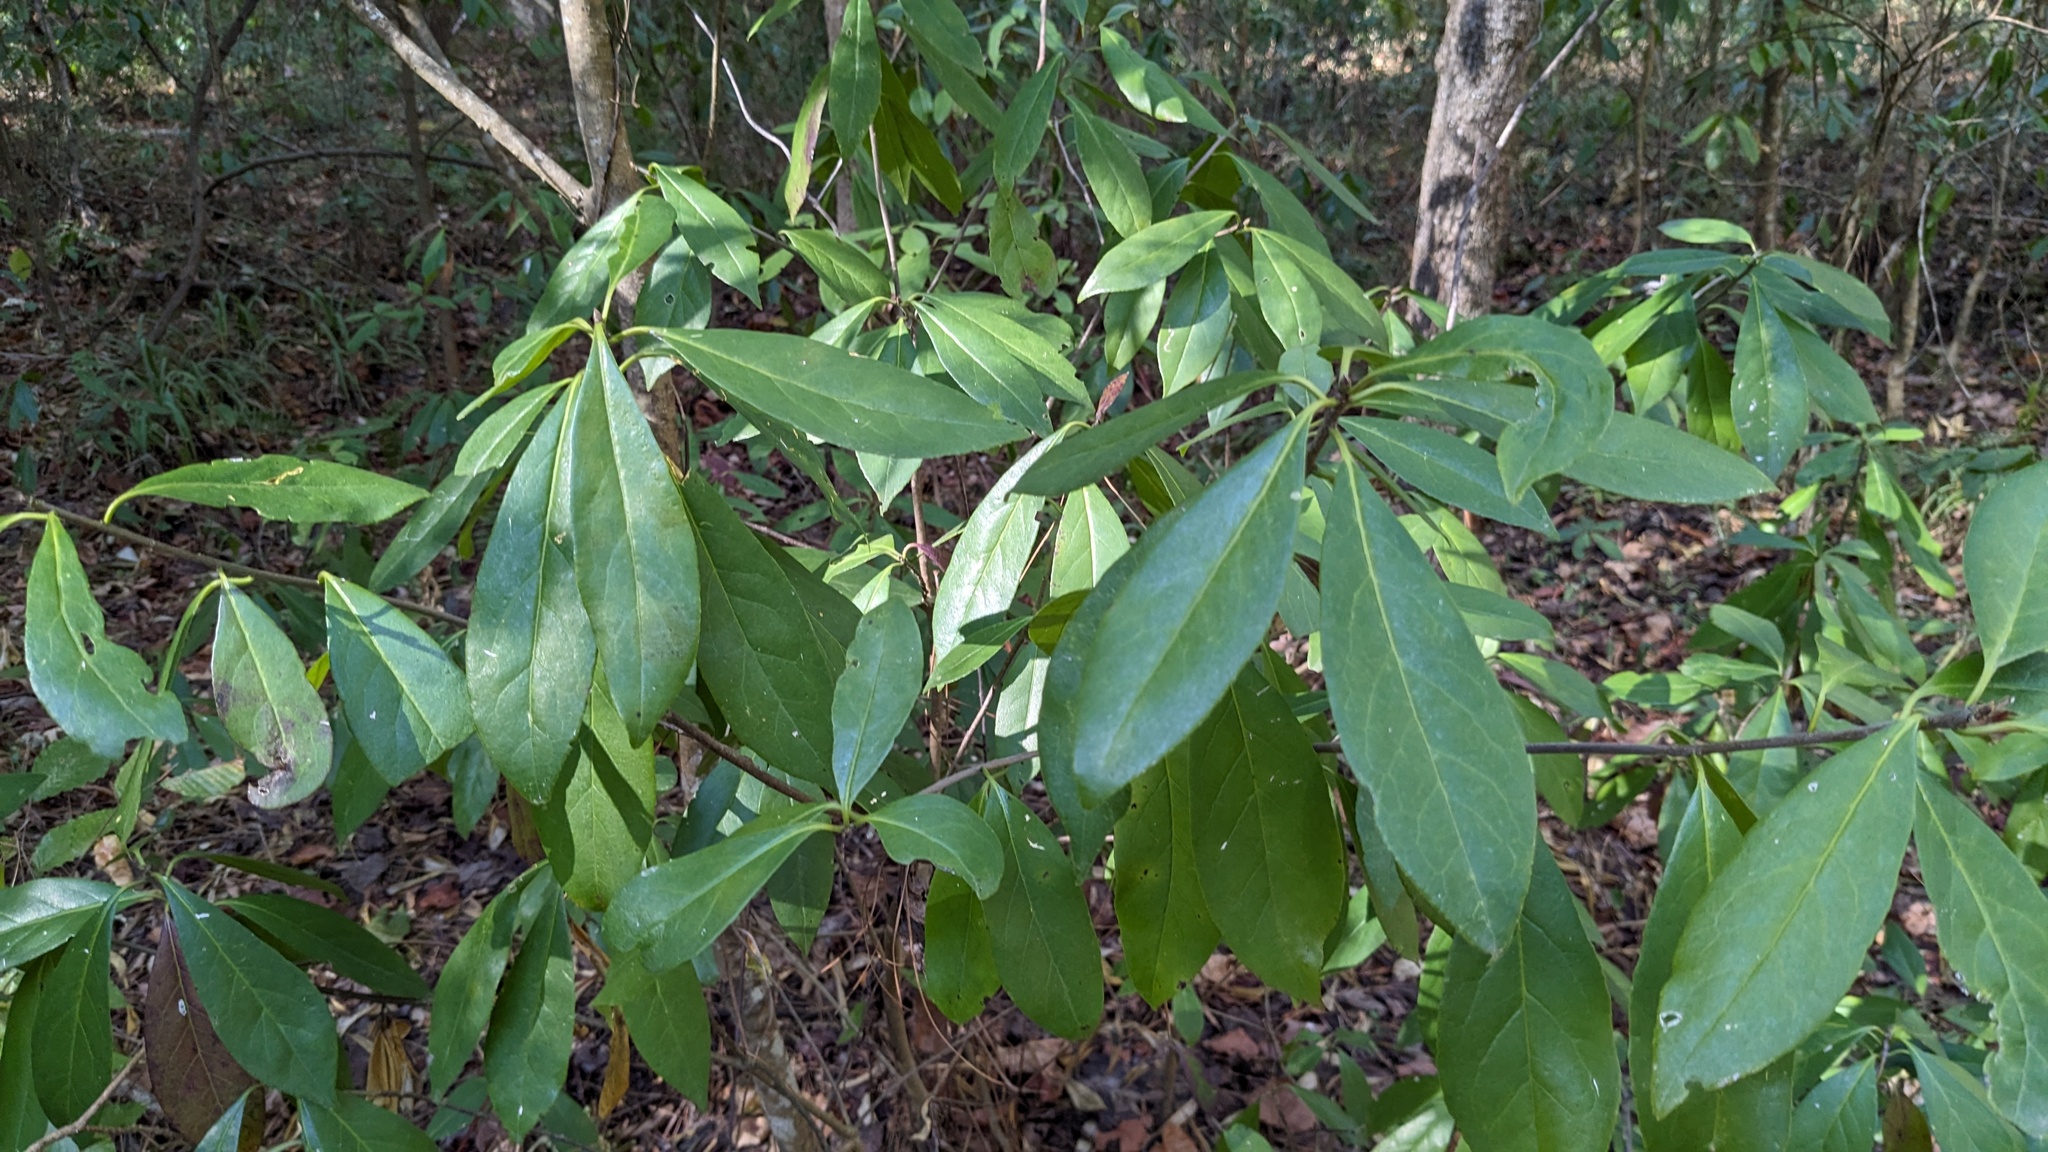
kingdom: Plantae
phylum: Tracheophyta
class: Magnoliopsida
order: Ericales
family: Symplocaceae
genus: Symplocos
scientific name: Symplocos tinctoria
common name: Horse-sugar
